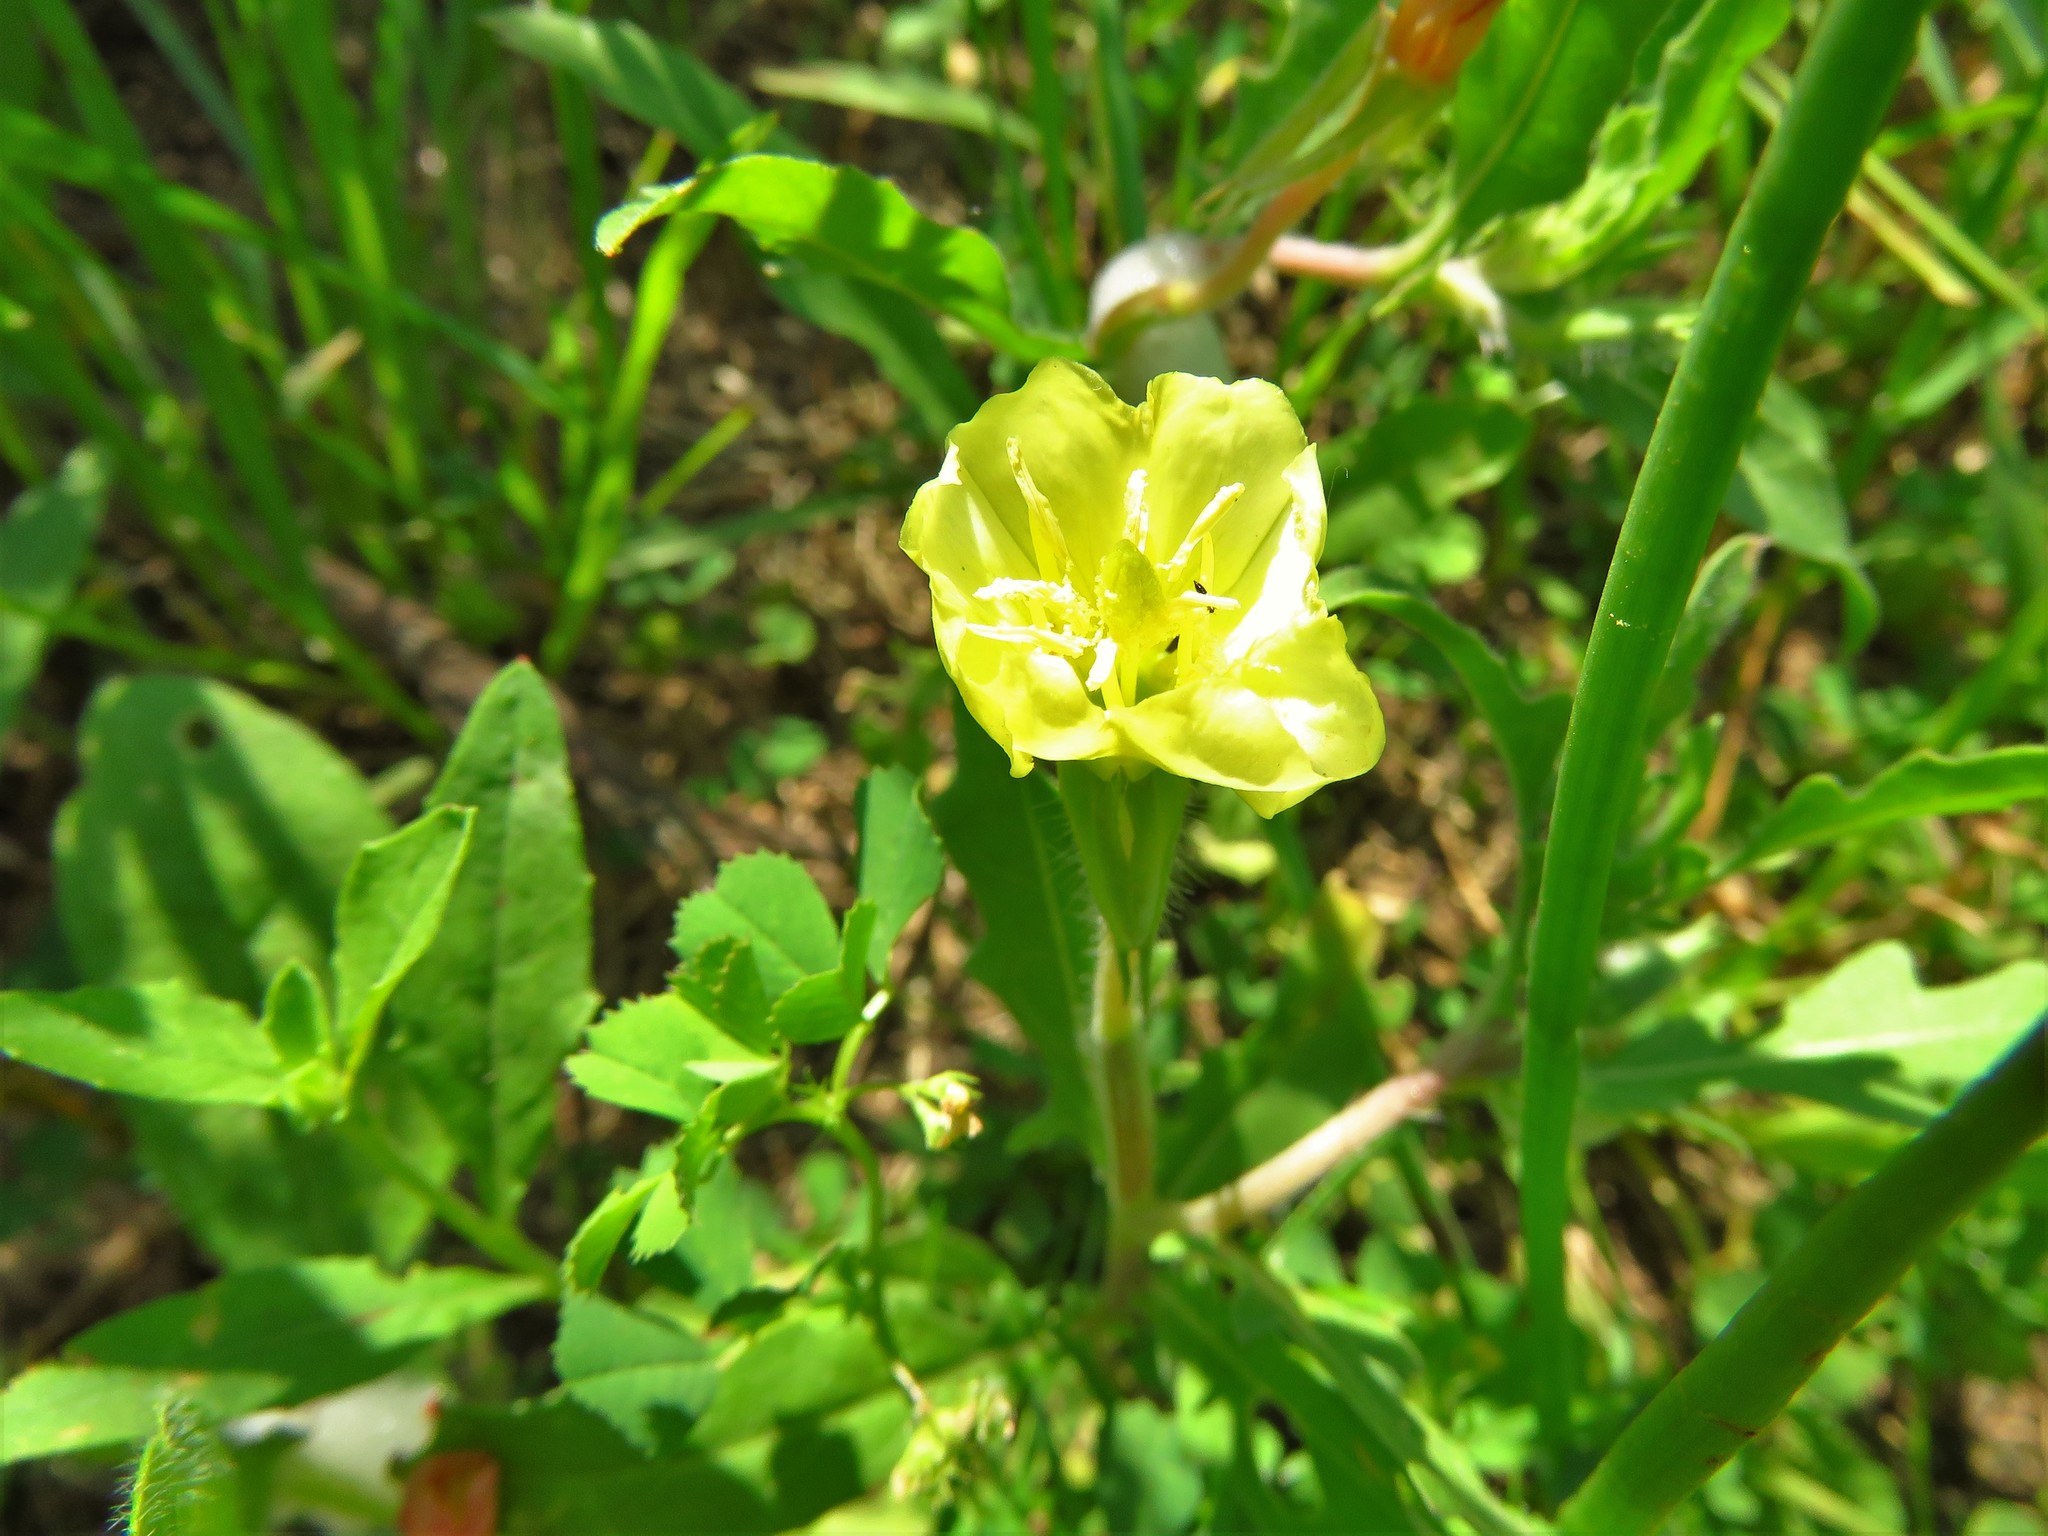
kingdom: Plantae
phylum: Tracheophyta
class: Magnoliopsida
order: Myrtales
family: Onagraceae
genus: Oenothera
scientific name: Oenothera laciniata
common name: Cut-leaved evening-primrose
